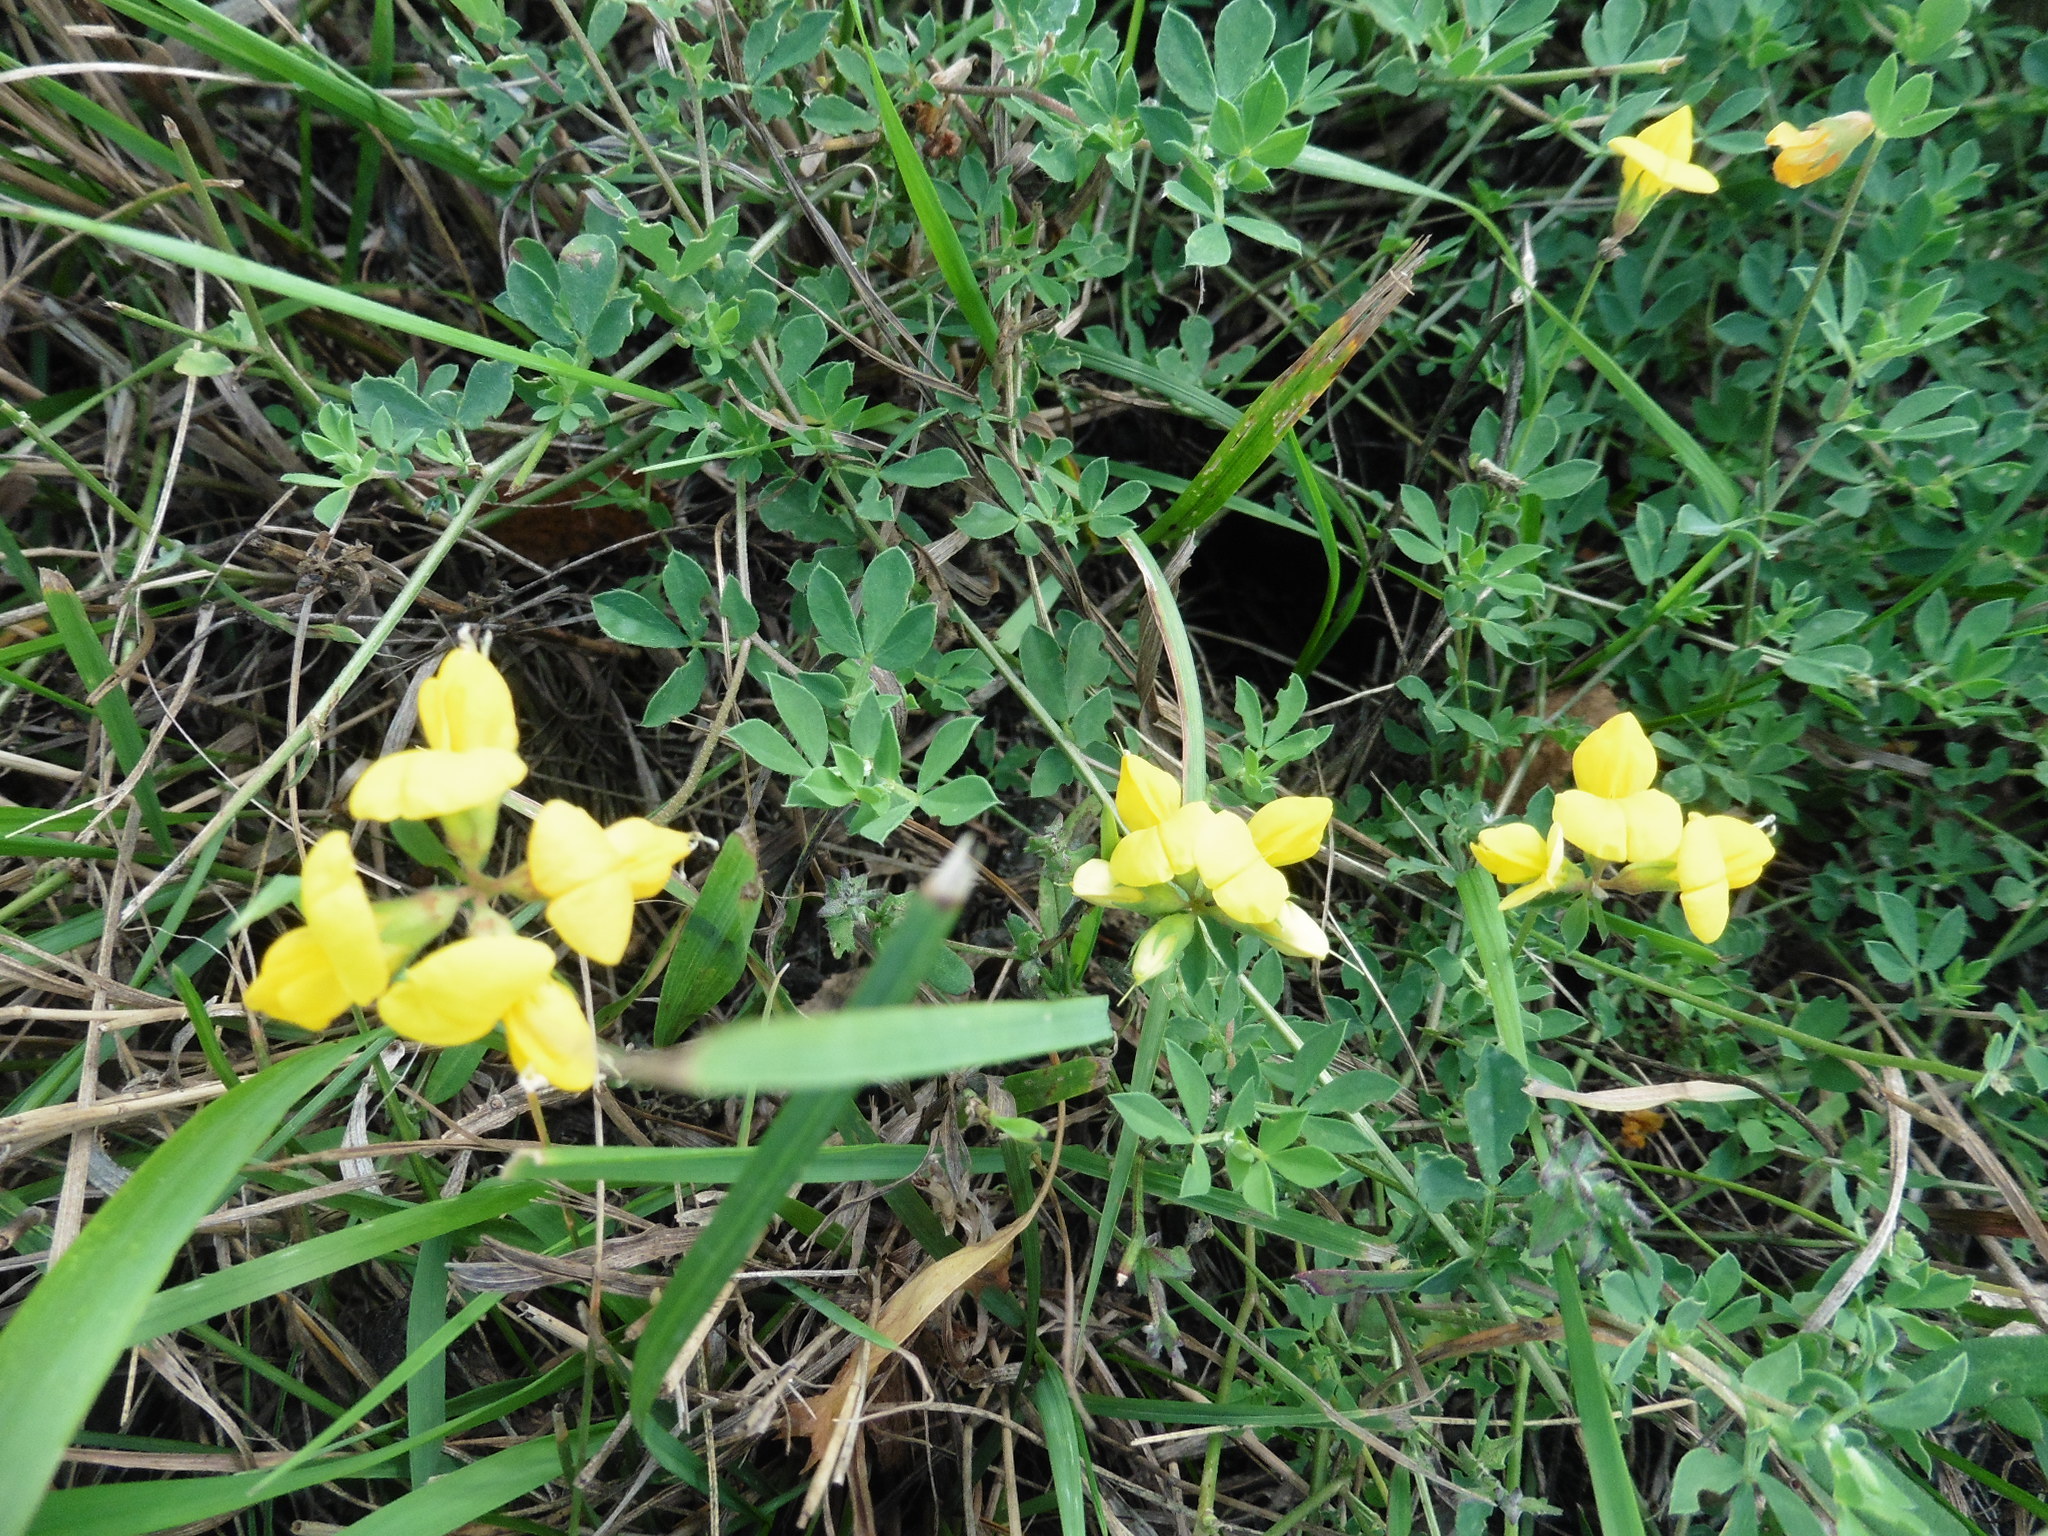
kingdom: Plantae
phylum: Tracheophyta
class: Magnoliopsida
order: Fabales
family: Fabaceae
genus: Lotus
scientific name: Lotus corniculatus
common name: Common bird's-foot-trefoil
